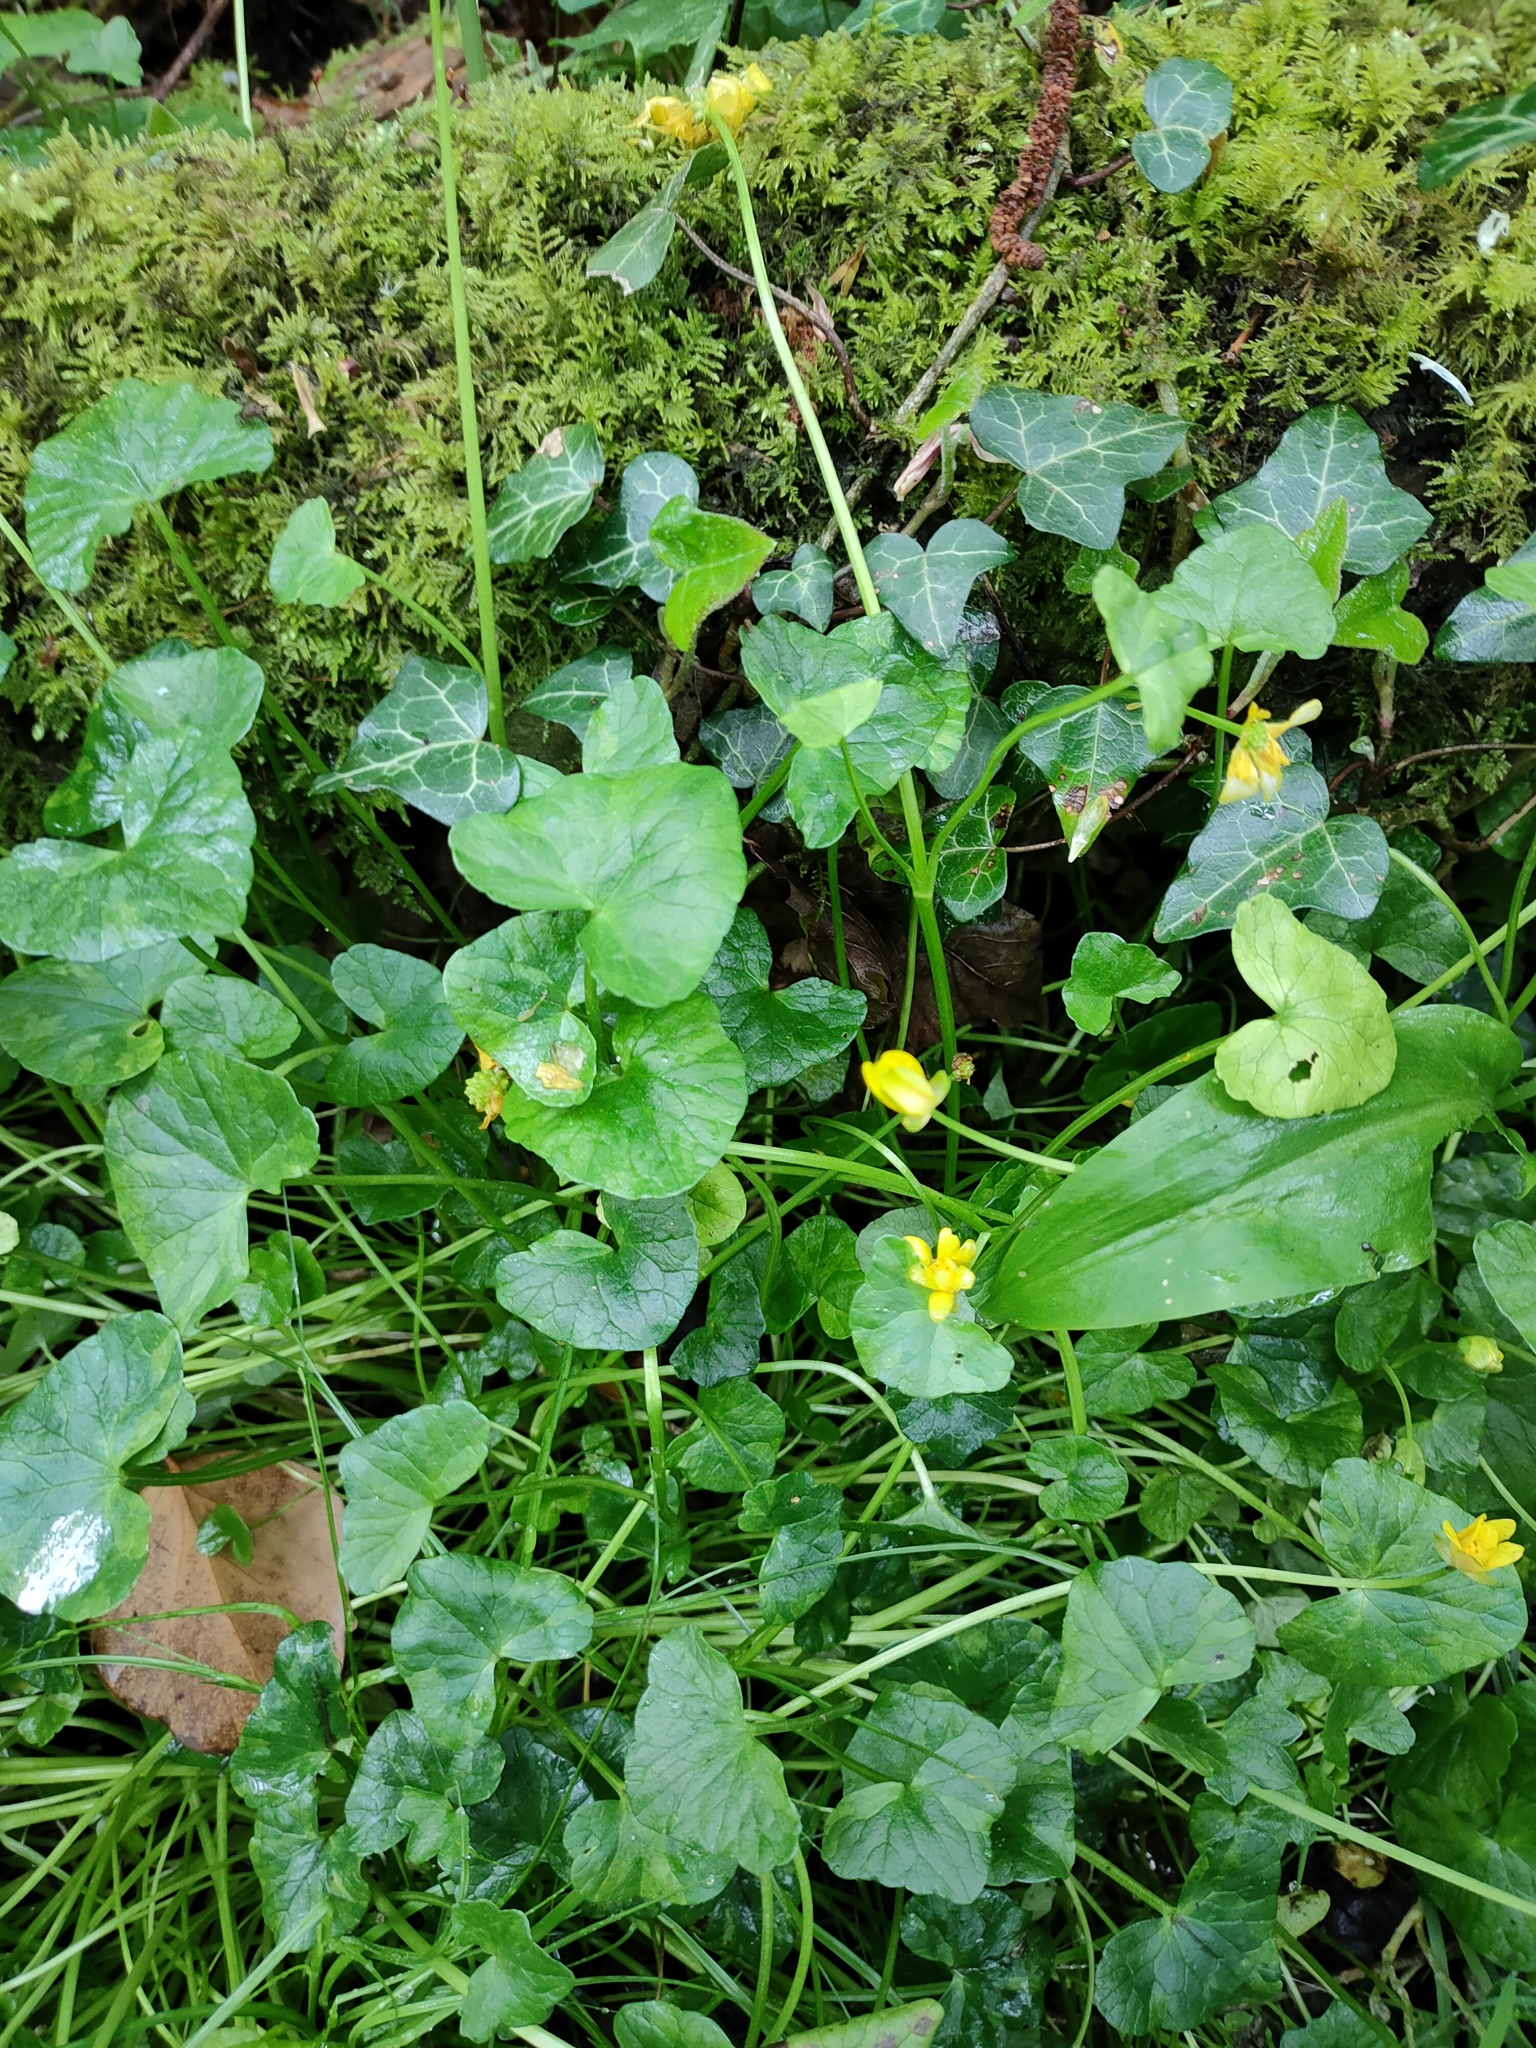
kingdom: Plantae
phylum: Tracheophyta
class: Magnoliopsida
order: Ranunculales
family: Ranunculaceae
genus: Ficaria
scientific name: Ficaria verna
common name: Lesser celandine
